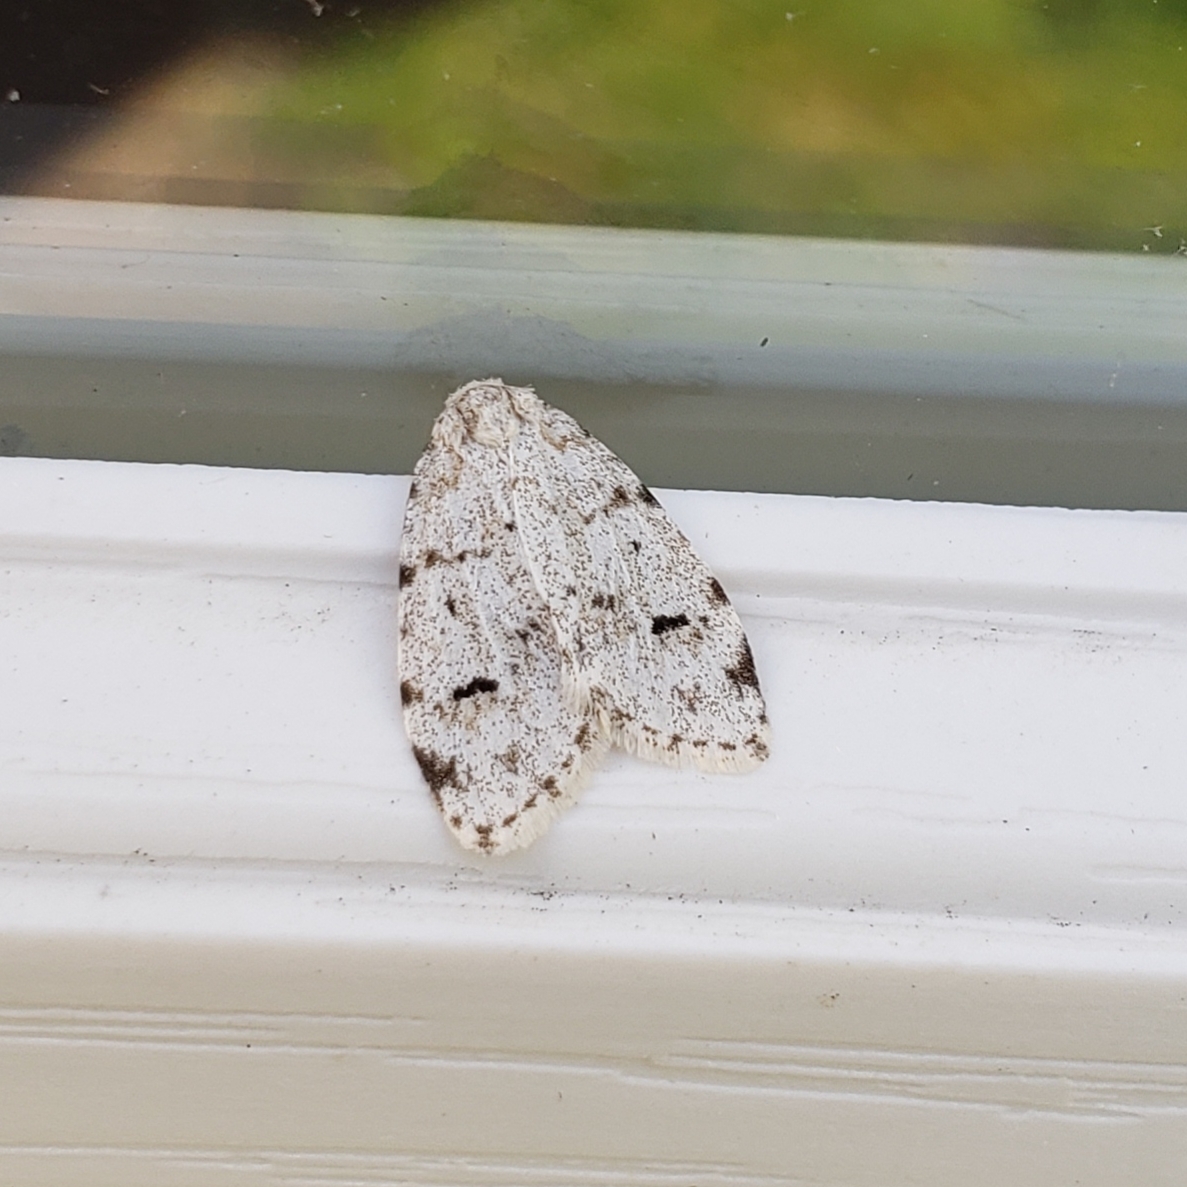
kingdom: Animalia
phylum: Arthropoda
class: Insecta
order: Lepidoptera
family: Erebidae
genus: Clemensia
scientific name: Clemensia albata
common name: Little white lichen moth
